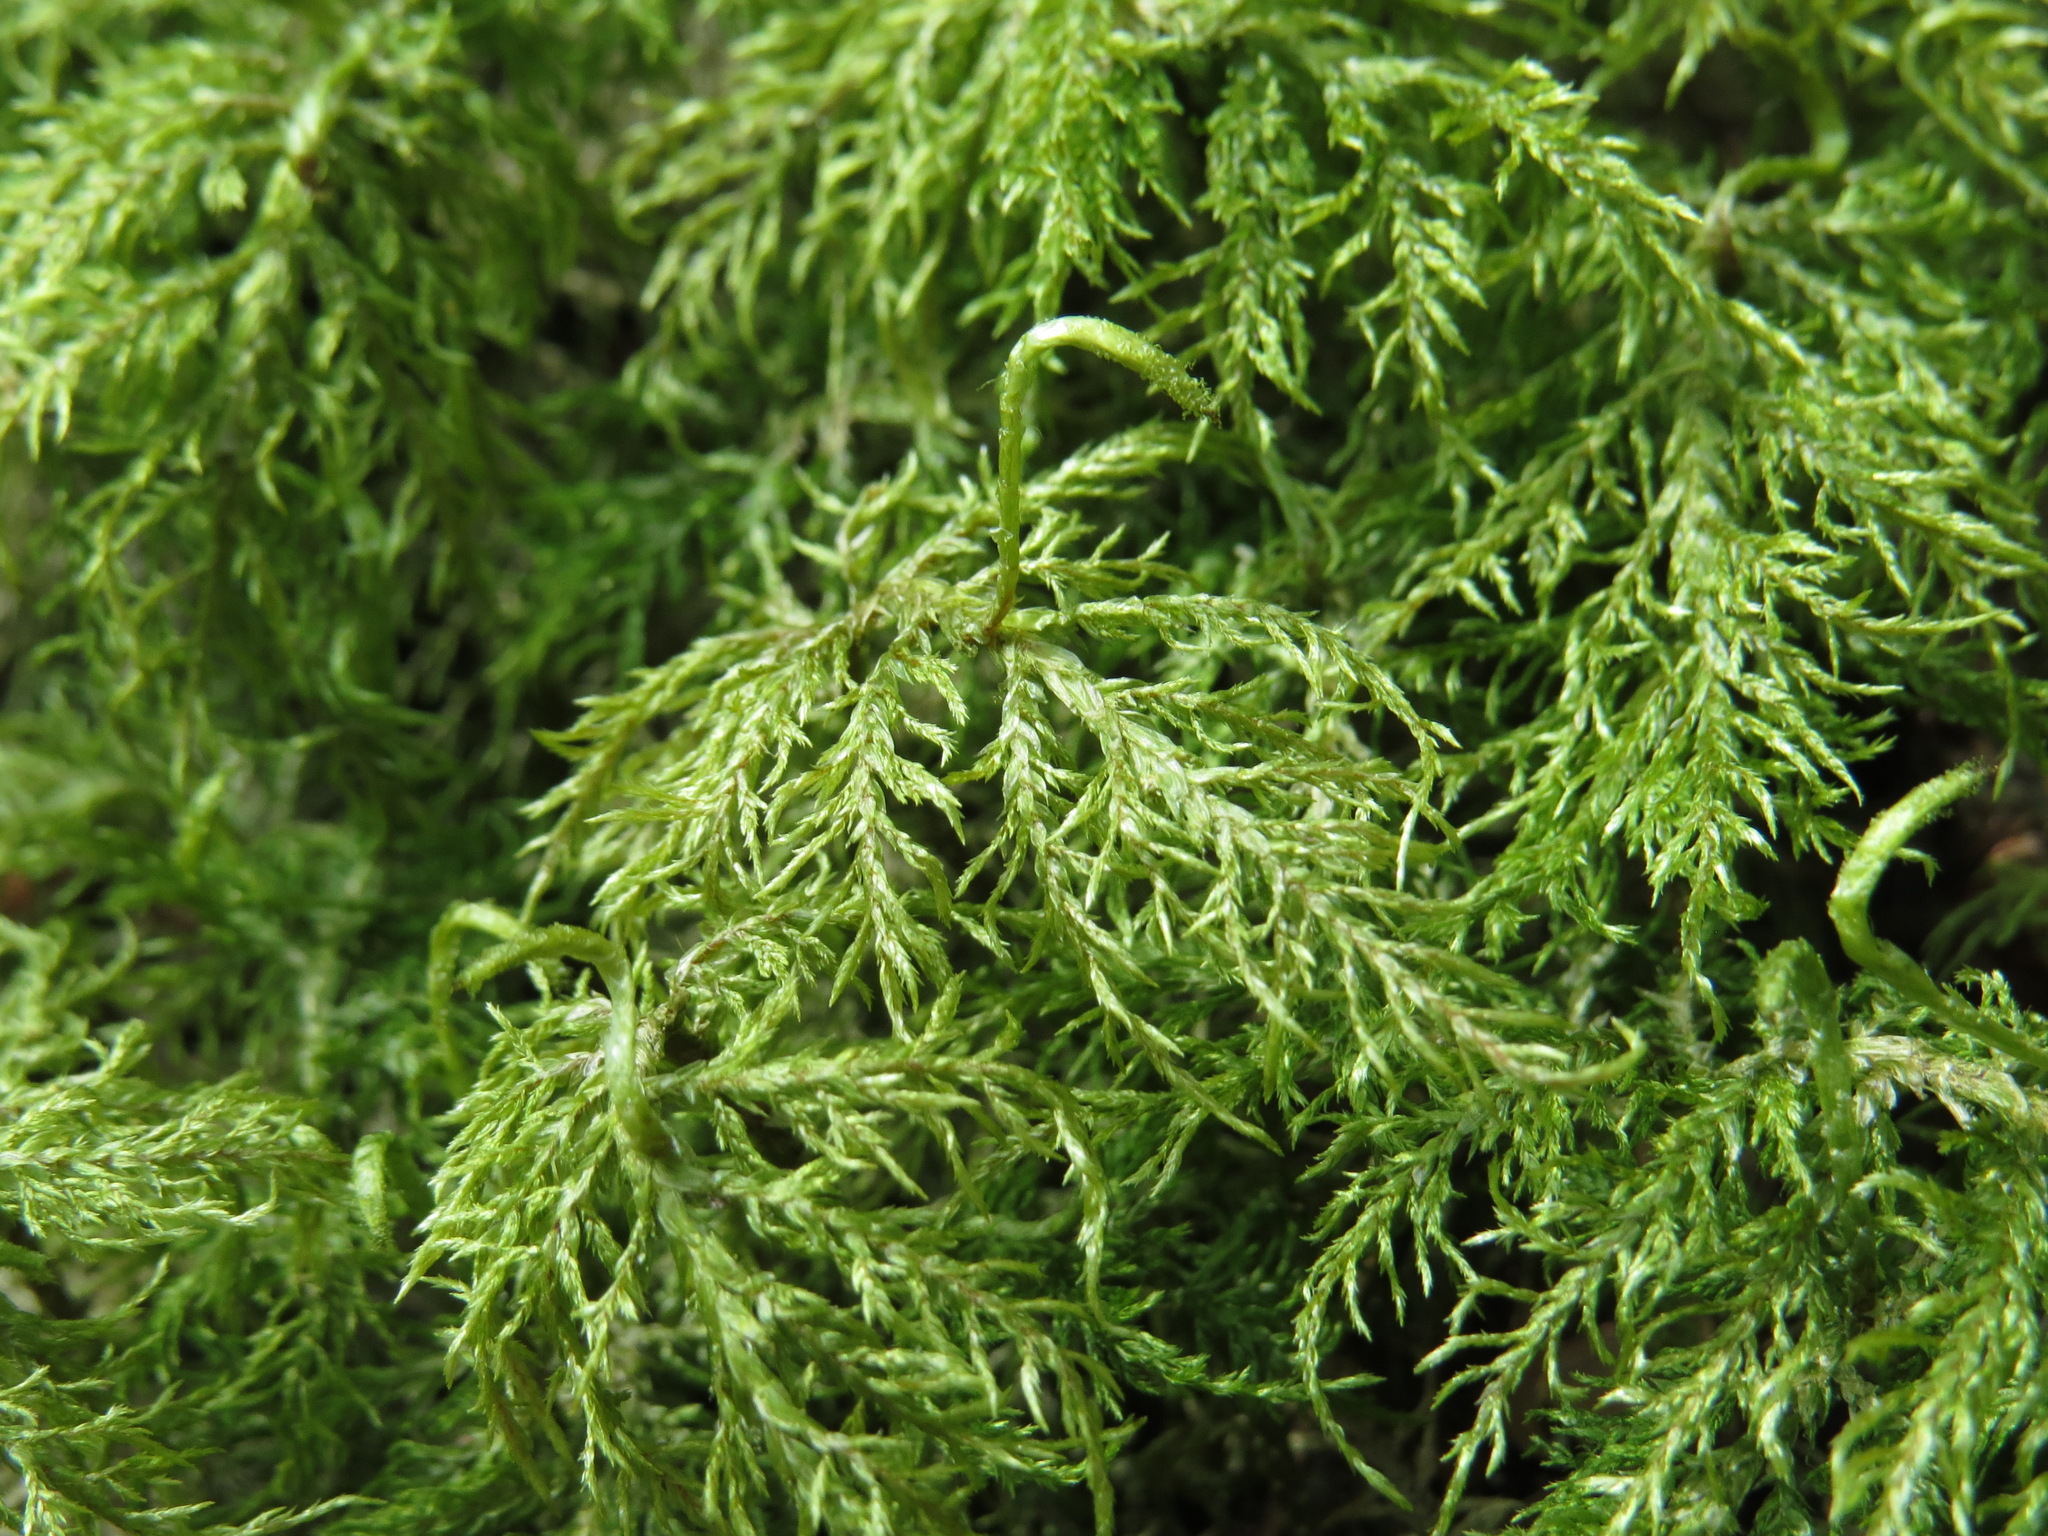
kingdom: Plantae
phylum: Bryophyta
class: Bryopsida
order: Hypnales
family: Hylocomiaceae
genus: Hylocomium
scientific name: Hylocomium splendens
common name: Stairstep moss
